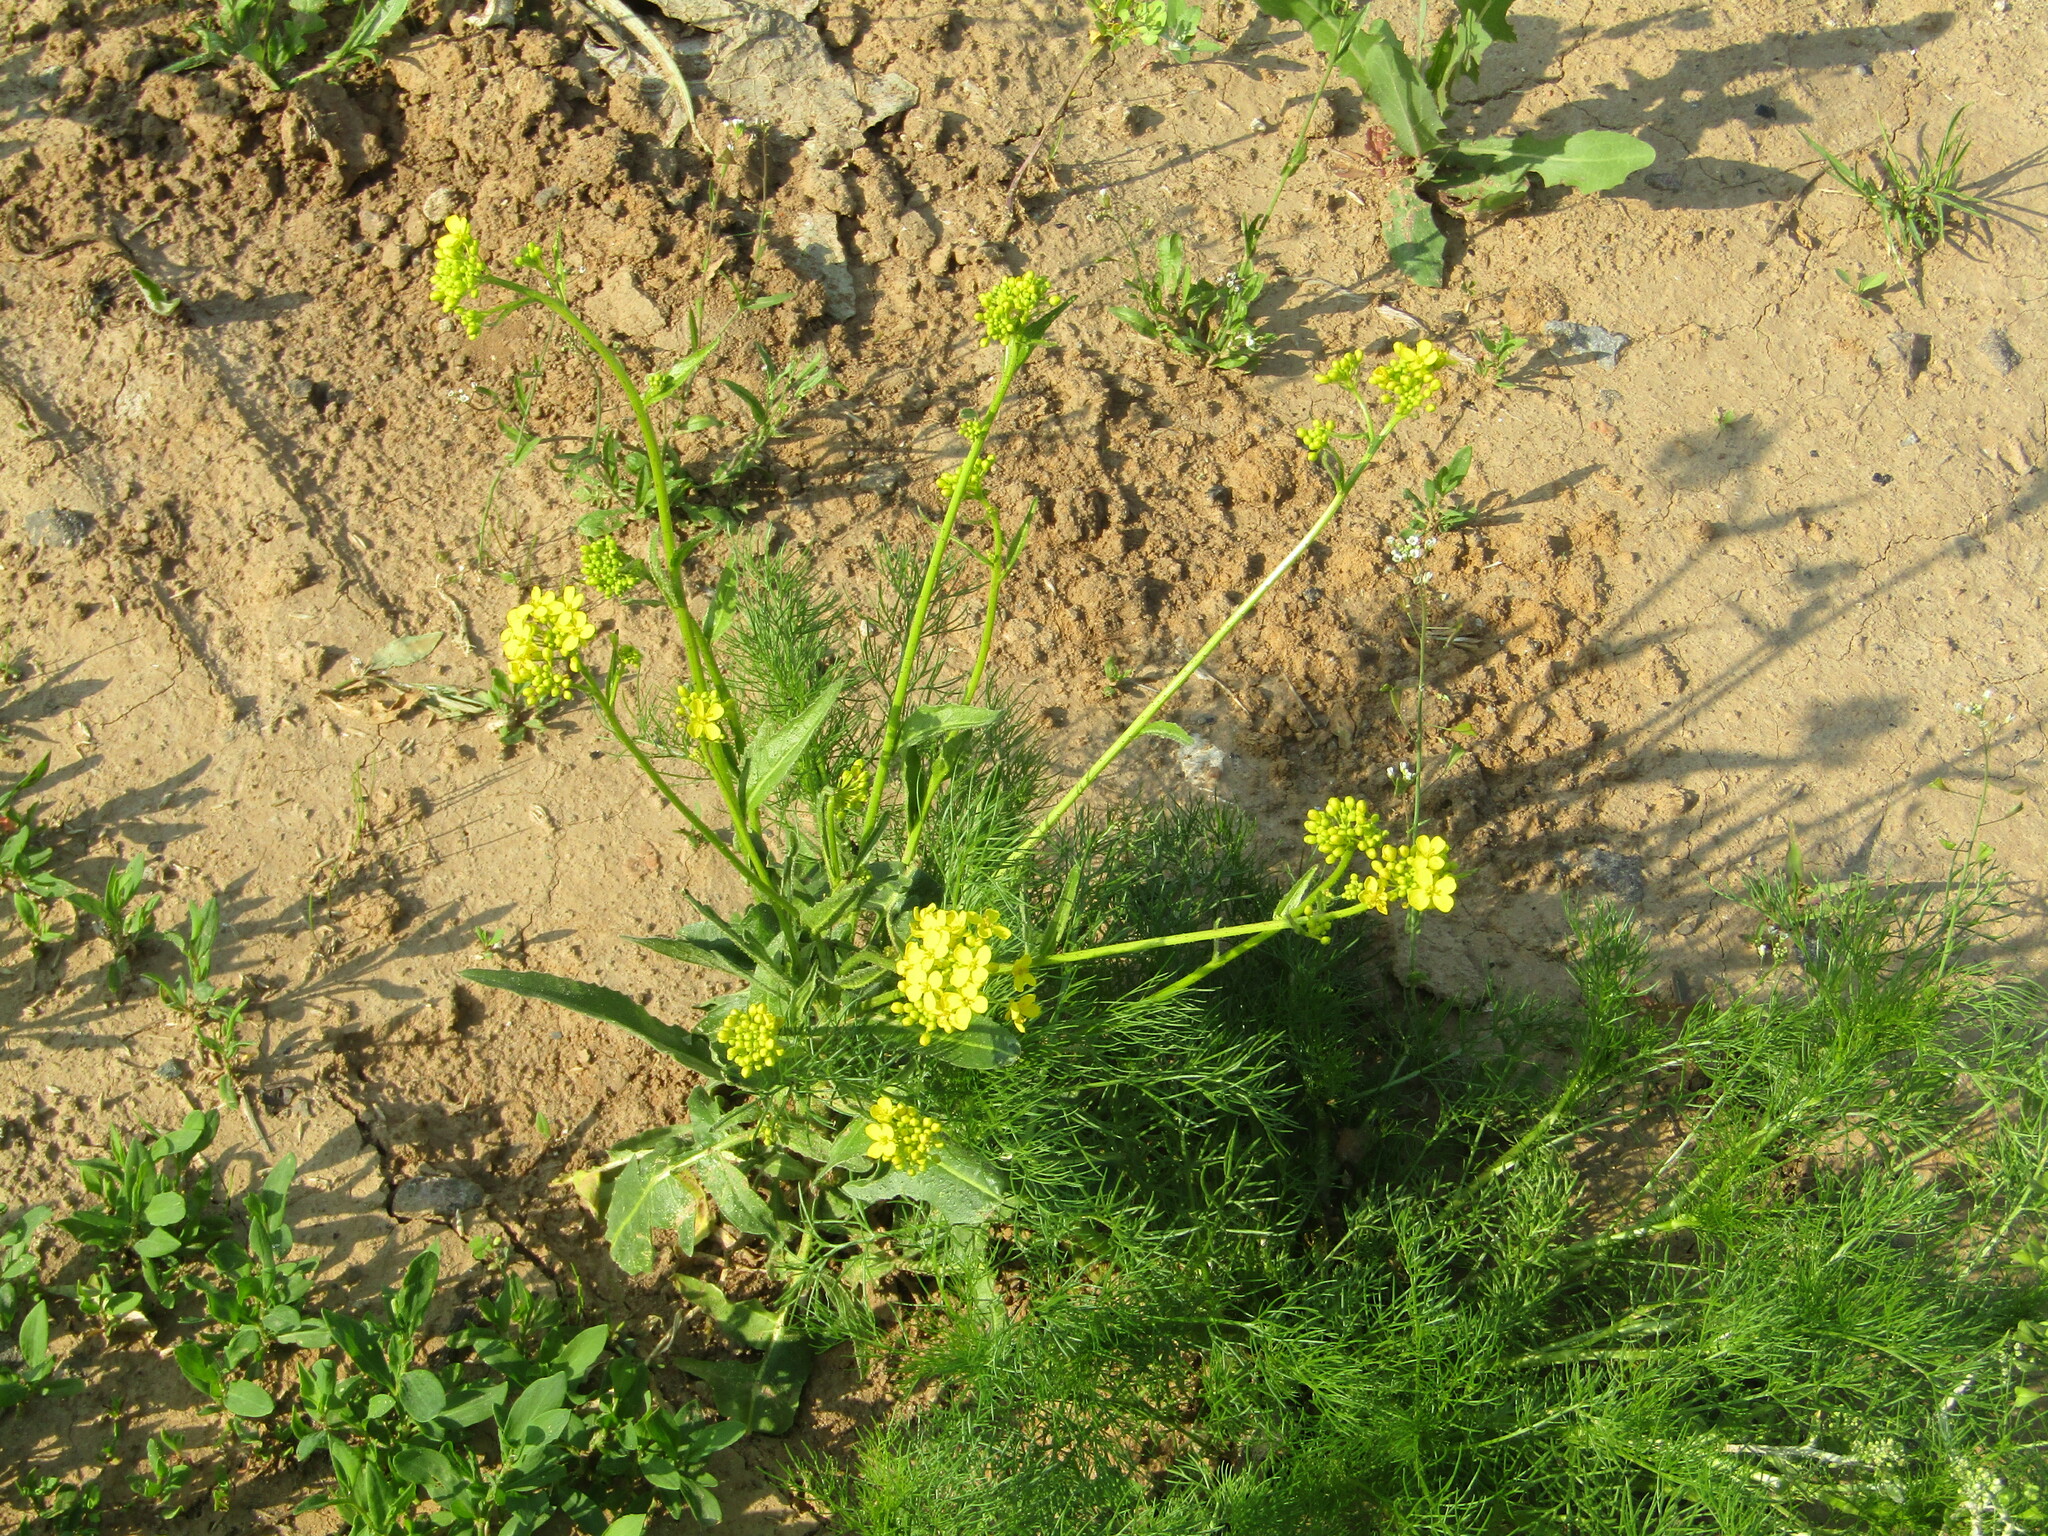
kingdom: Plantae
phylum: Tracheophyta
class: Magnoliopsida
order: Brassicales
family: Brassicaceae
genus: Bunias
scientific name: Bunias orientalis
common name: Warty-cabbage
